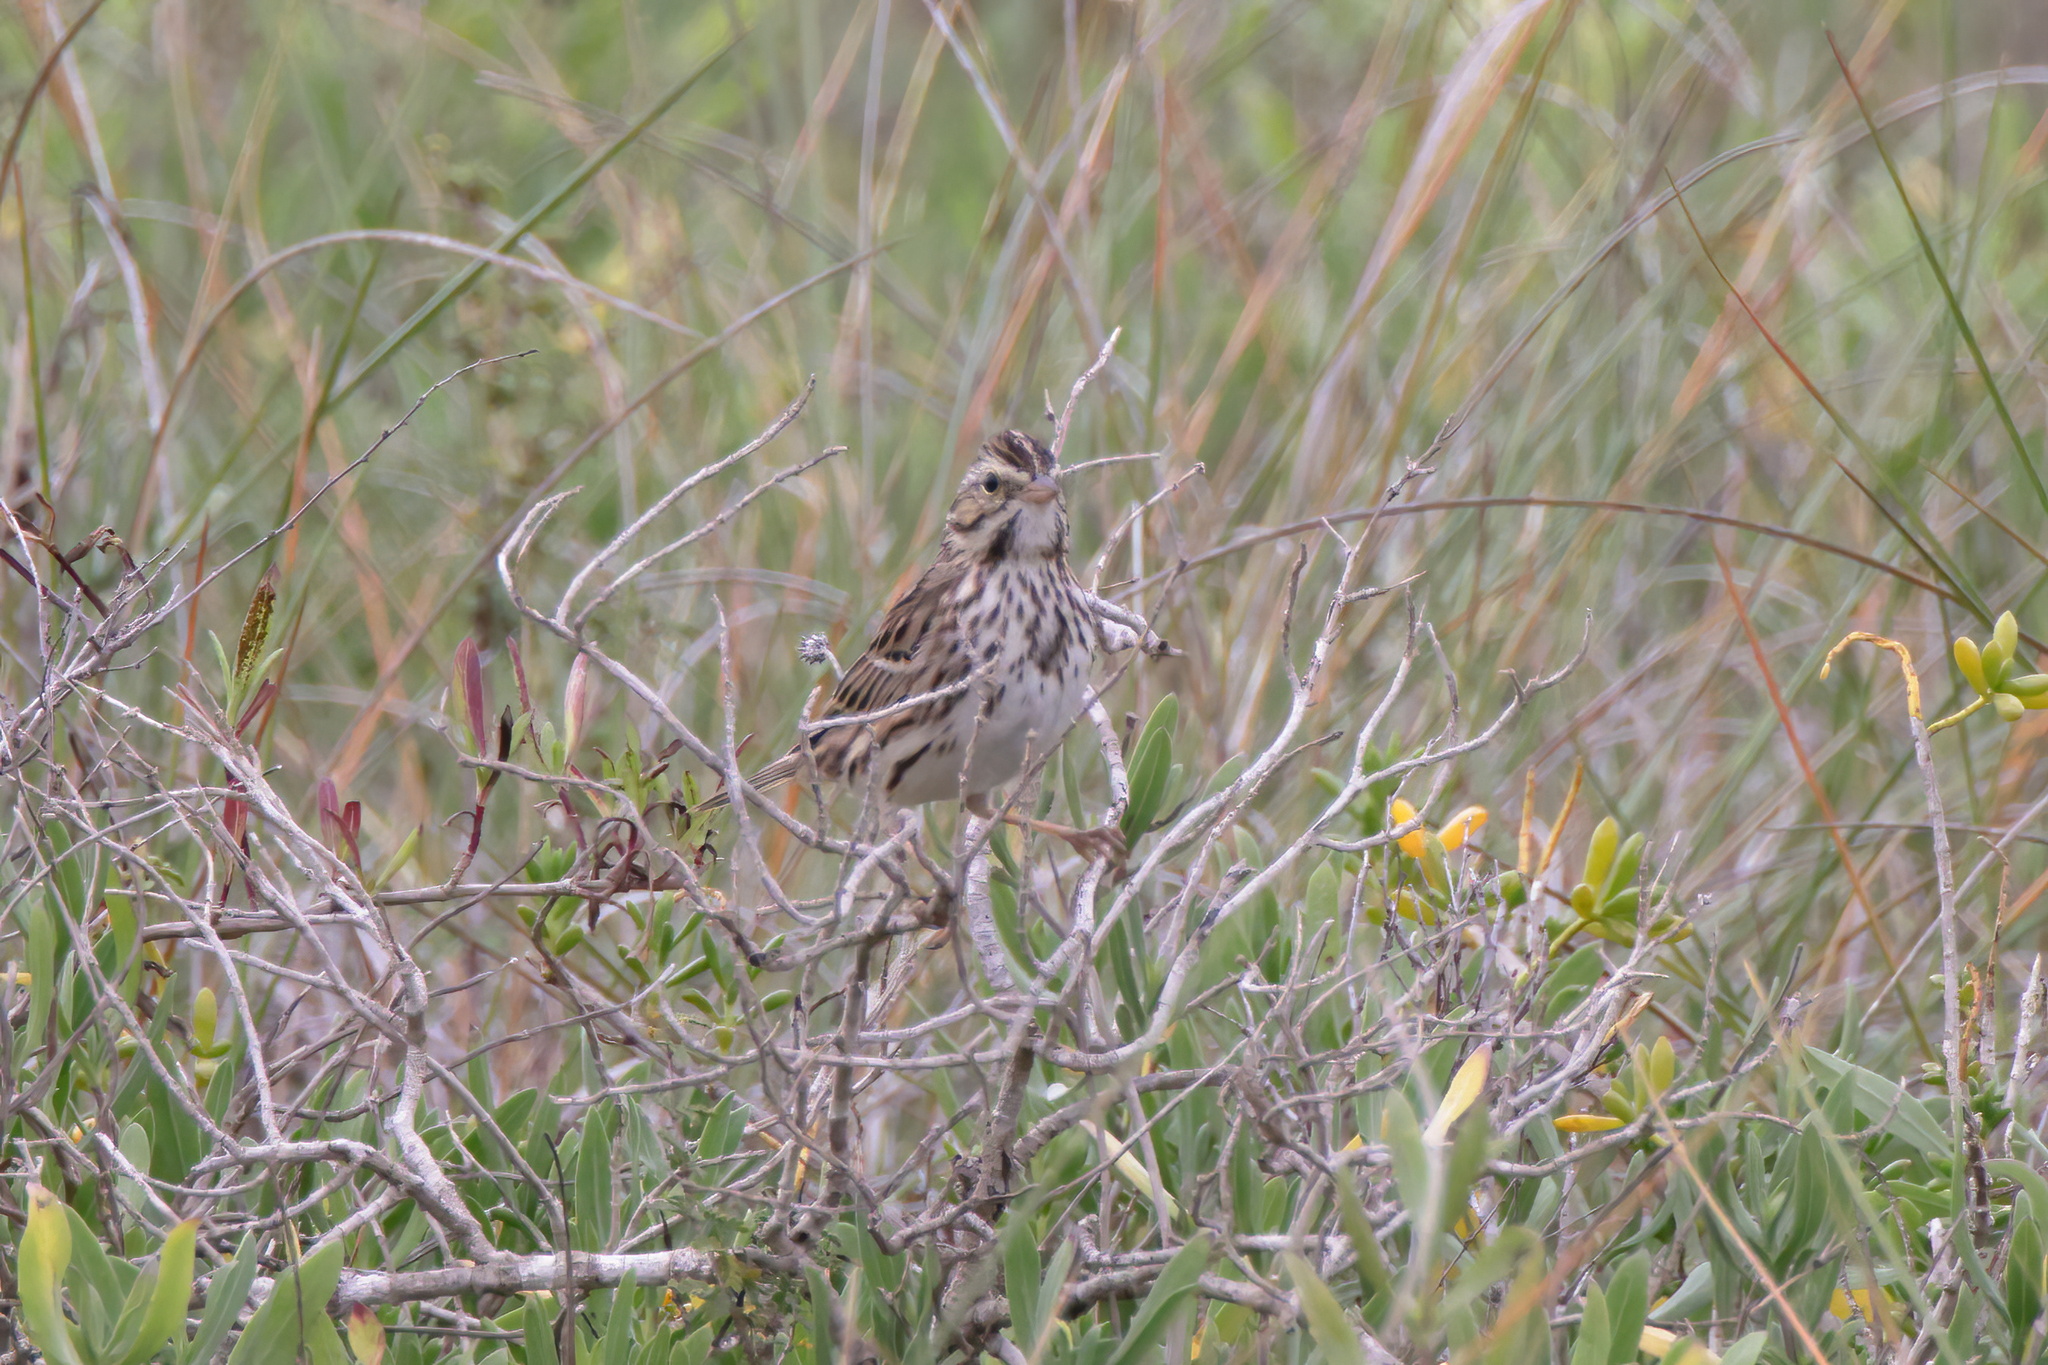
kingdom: Animalia
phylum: Chordata
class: Aves
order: Passeriformes
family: Passerellidae
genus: Passerculus
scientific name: Passerculus sandwichensis
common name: Savannah sparrow
